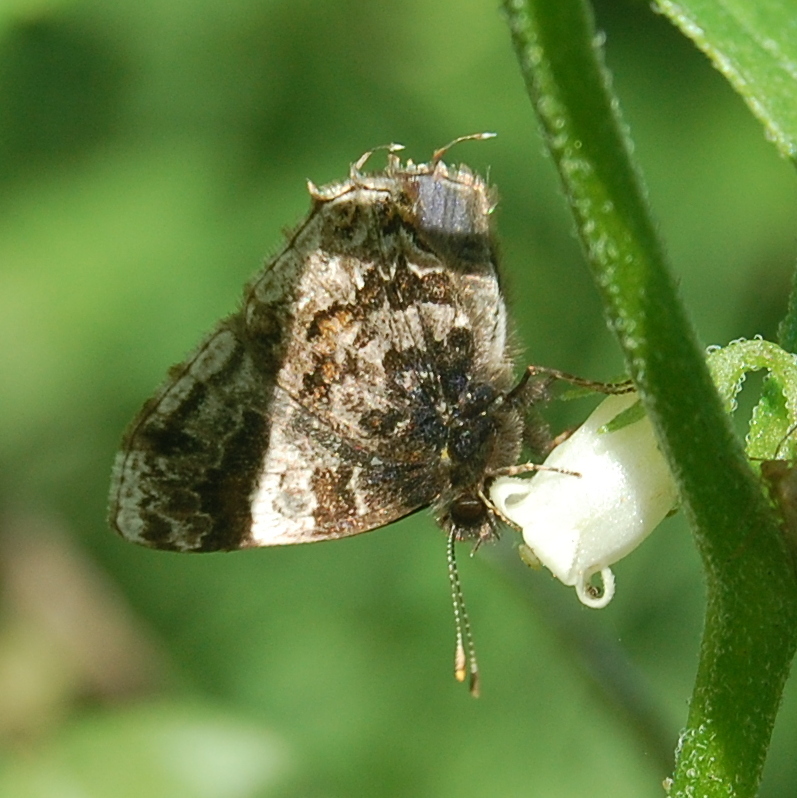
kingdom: Animalia
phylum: Arthropoda
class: Insecta
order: Lepidoptera
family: Lycaenidae
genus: Aubergina
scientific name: Aubergina vanessoides
